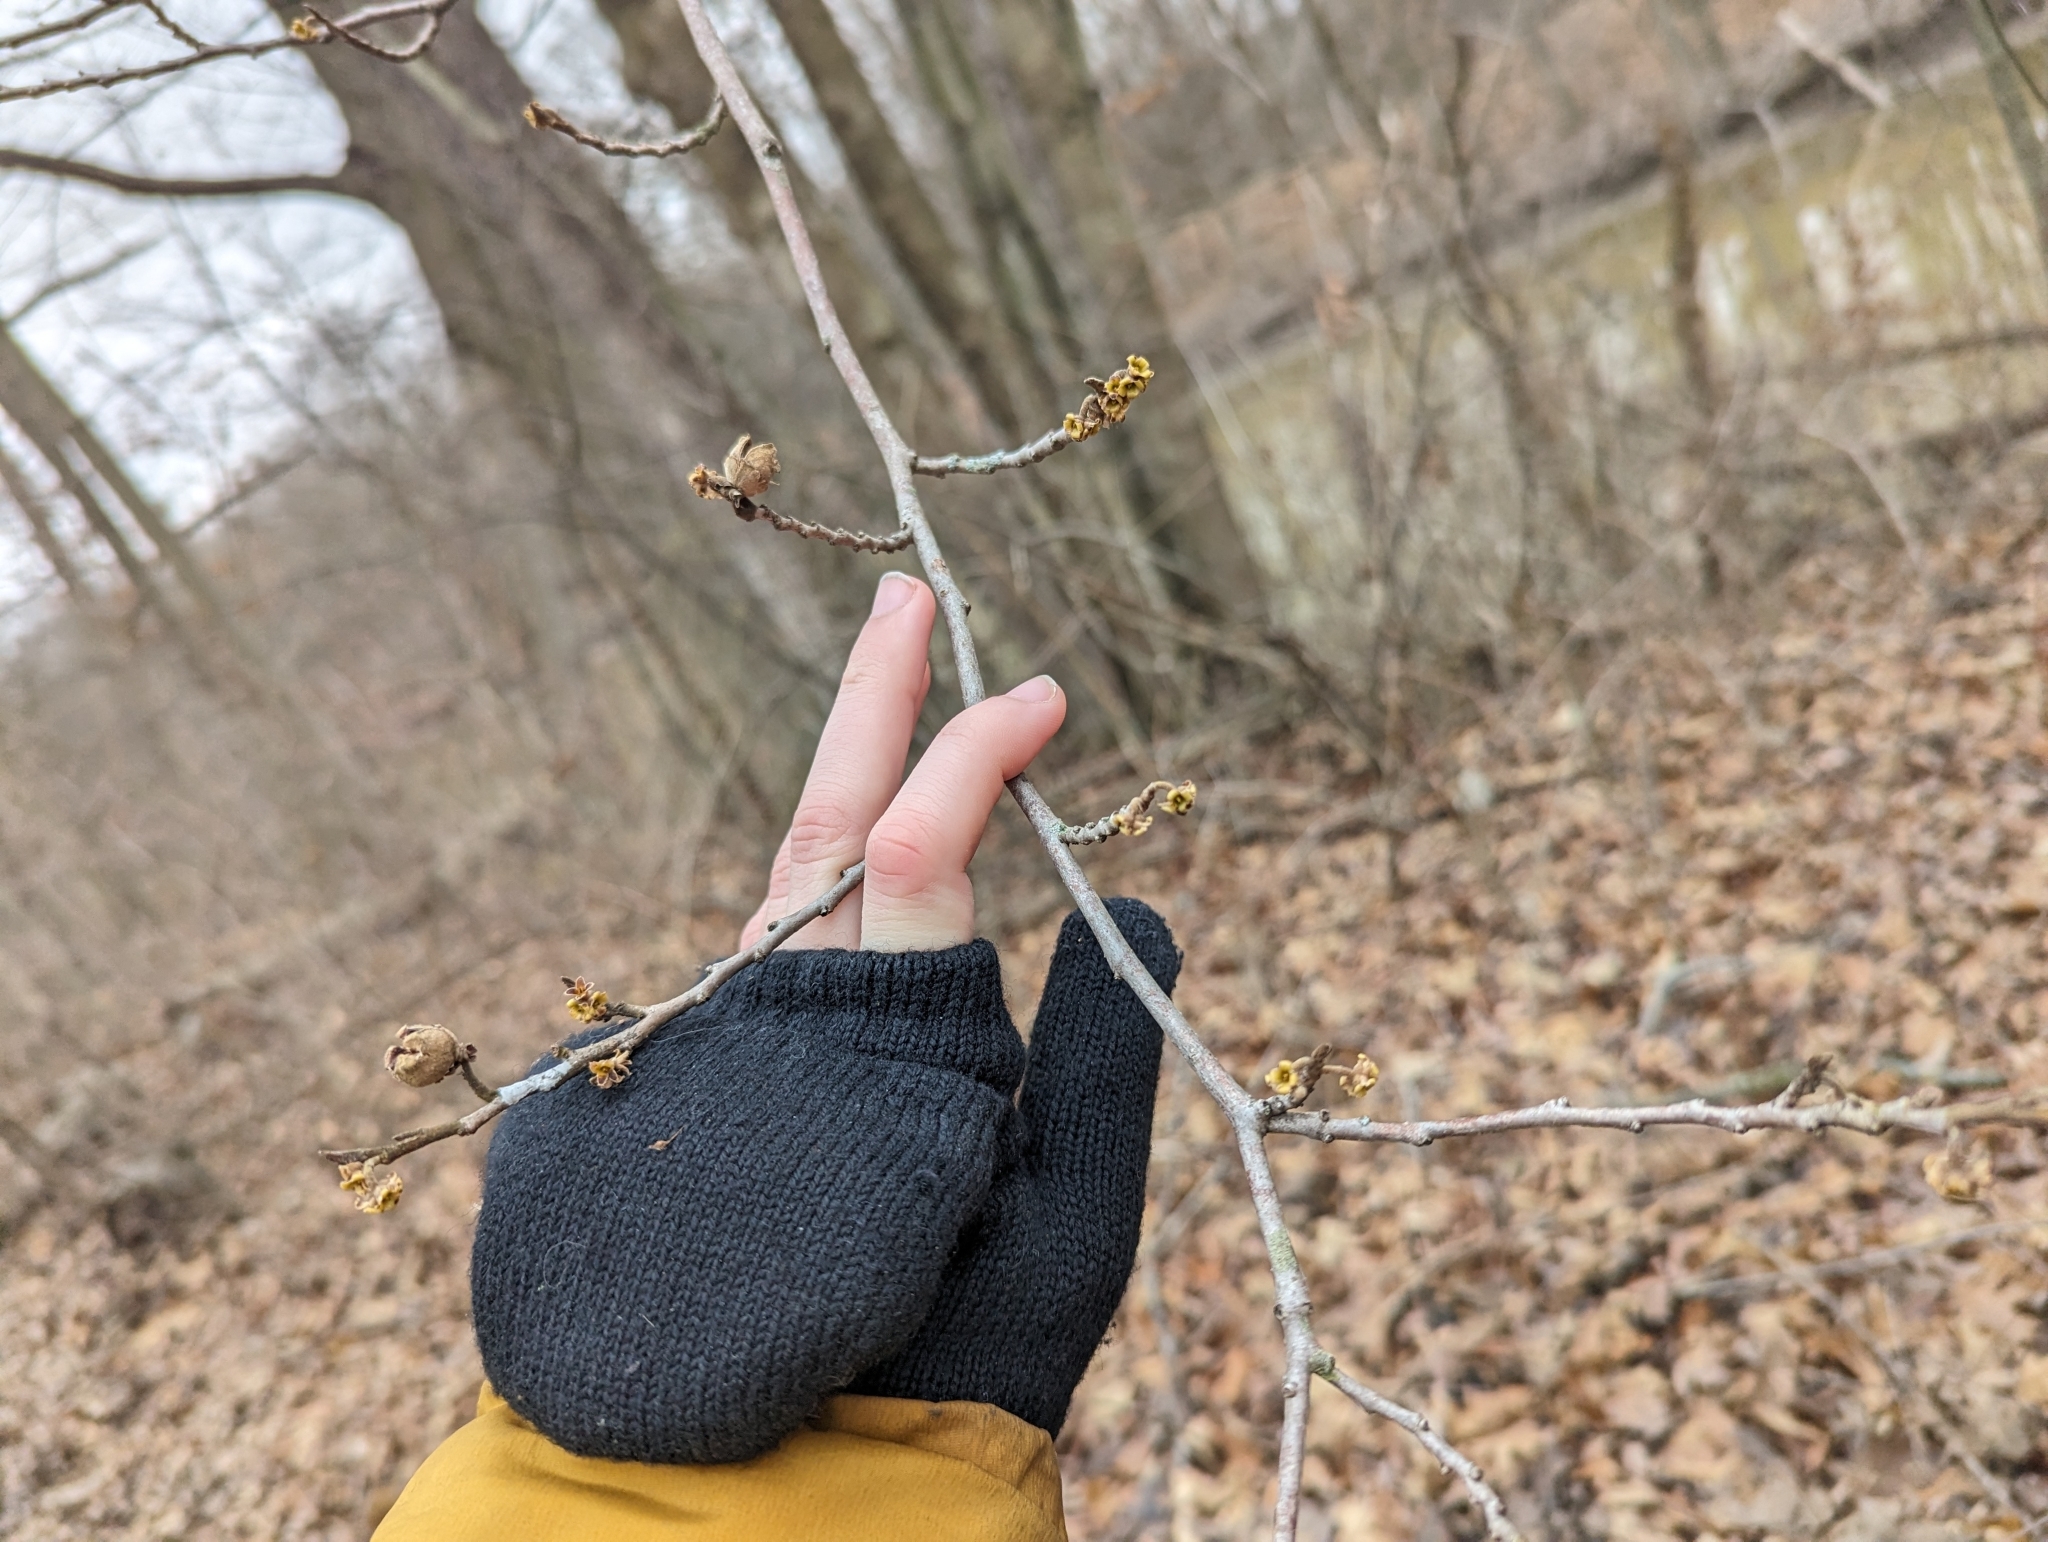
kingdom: Plantae
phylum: Tracheophyta
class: Magnoliopsida
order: Saxifragales
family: Hamamelidaceae
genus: Hamamelis
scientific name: Hamamelis virginiana
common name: Witch-hazel
